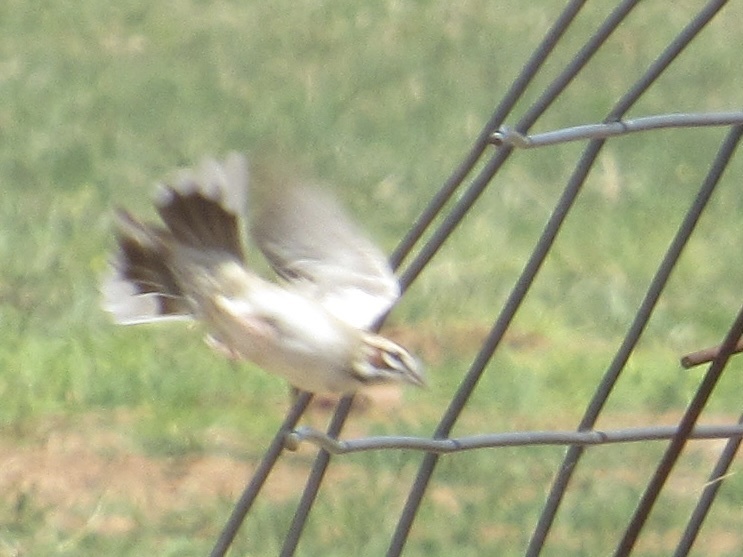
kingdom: Animalia
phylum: Chordata
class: Aves
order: Passeriformes
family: Passerellidae
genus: Chondestes
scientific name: Chondestes grammacus
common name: Lark sparrow
